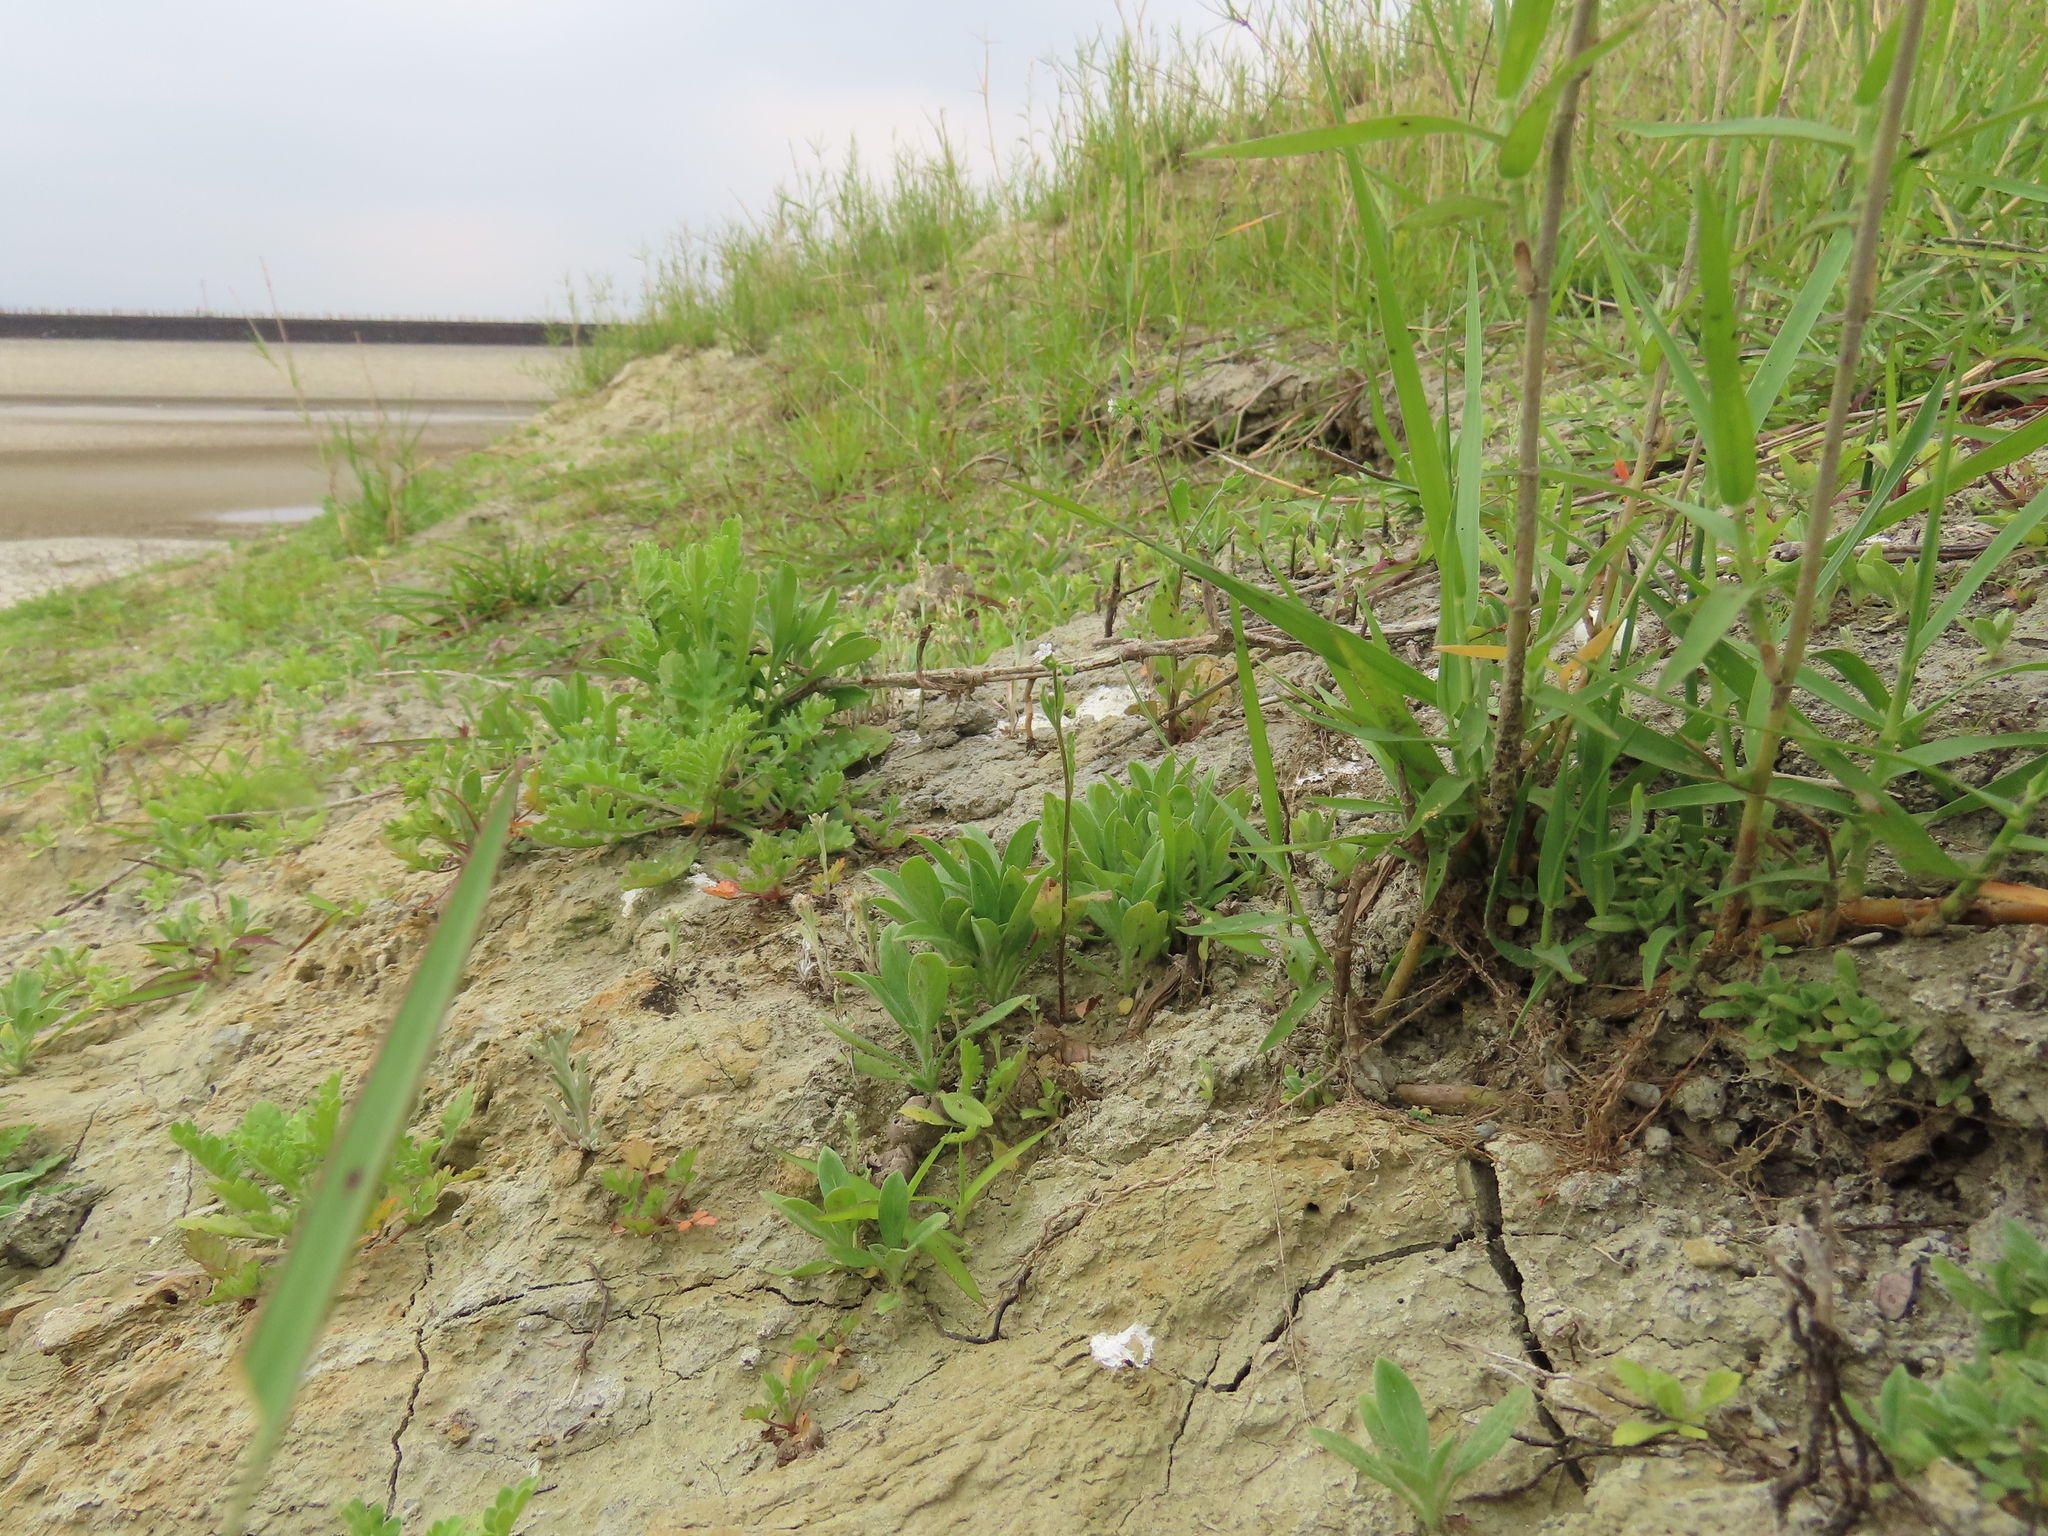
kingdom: Plantae
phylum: Tracheophyta
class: Magnoliopsida
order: Boraginales
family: Boraginaceae
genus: Bothriospermum
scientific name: Bothriospermum zeylanicum
